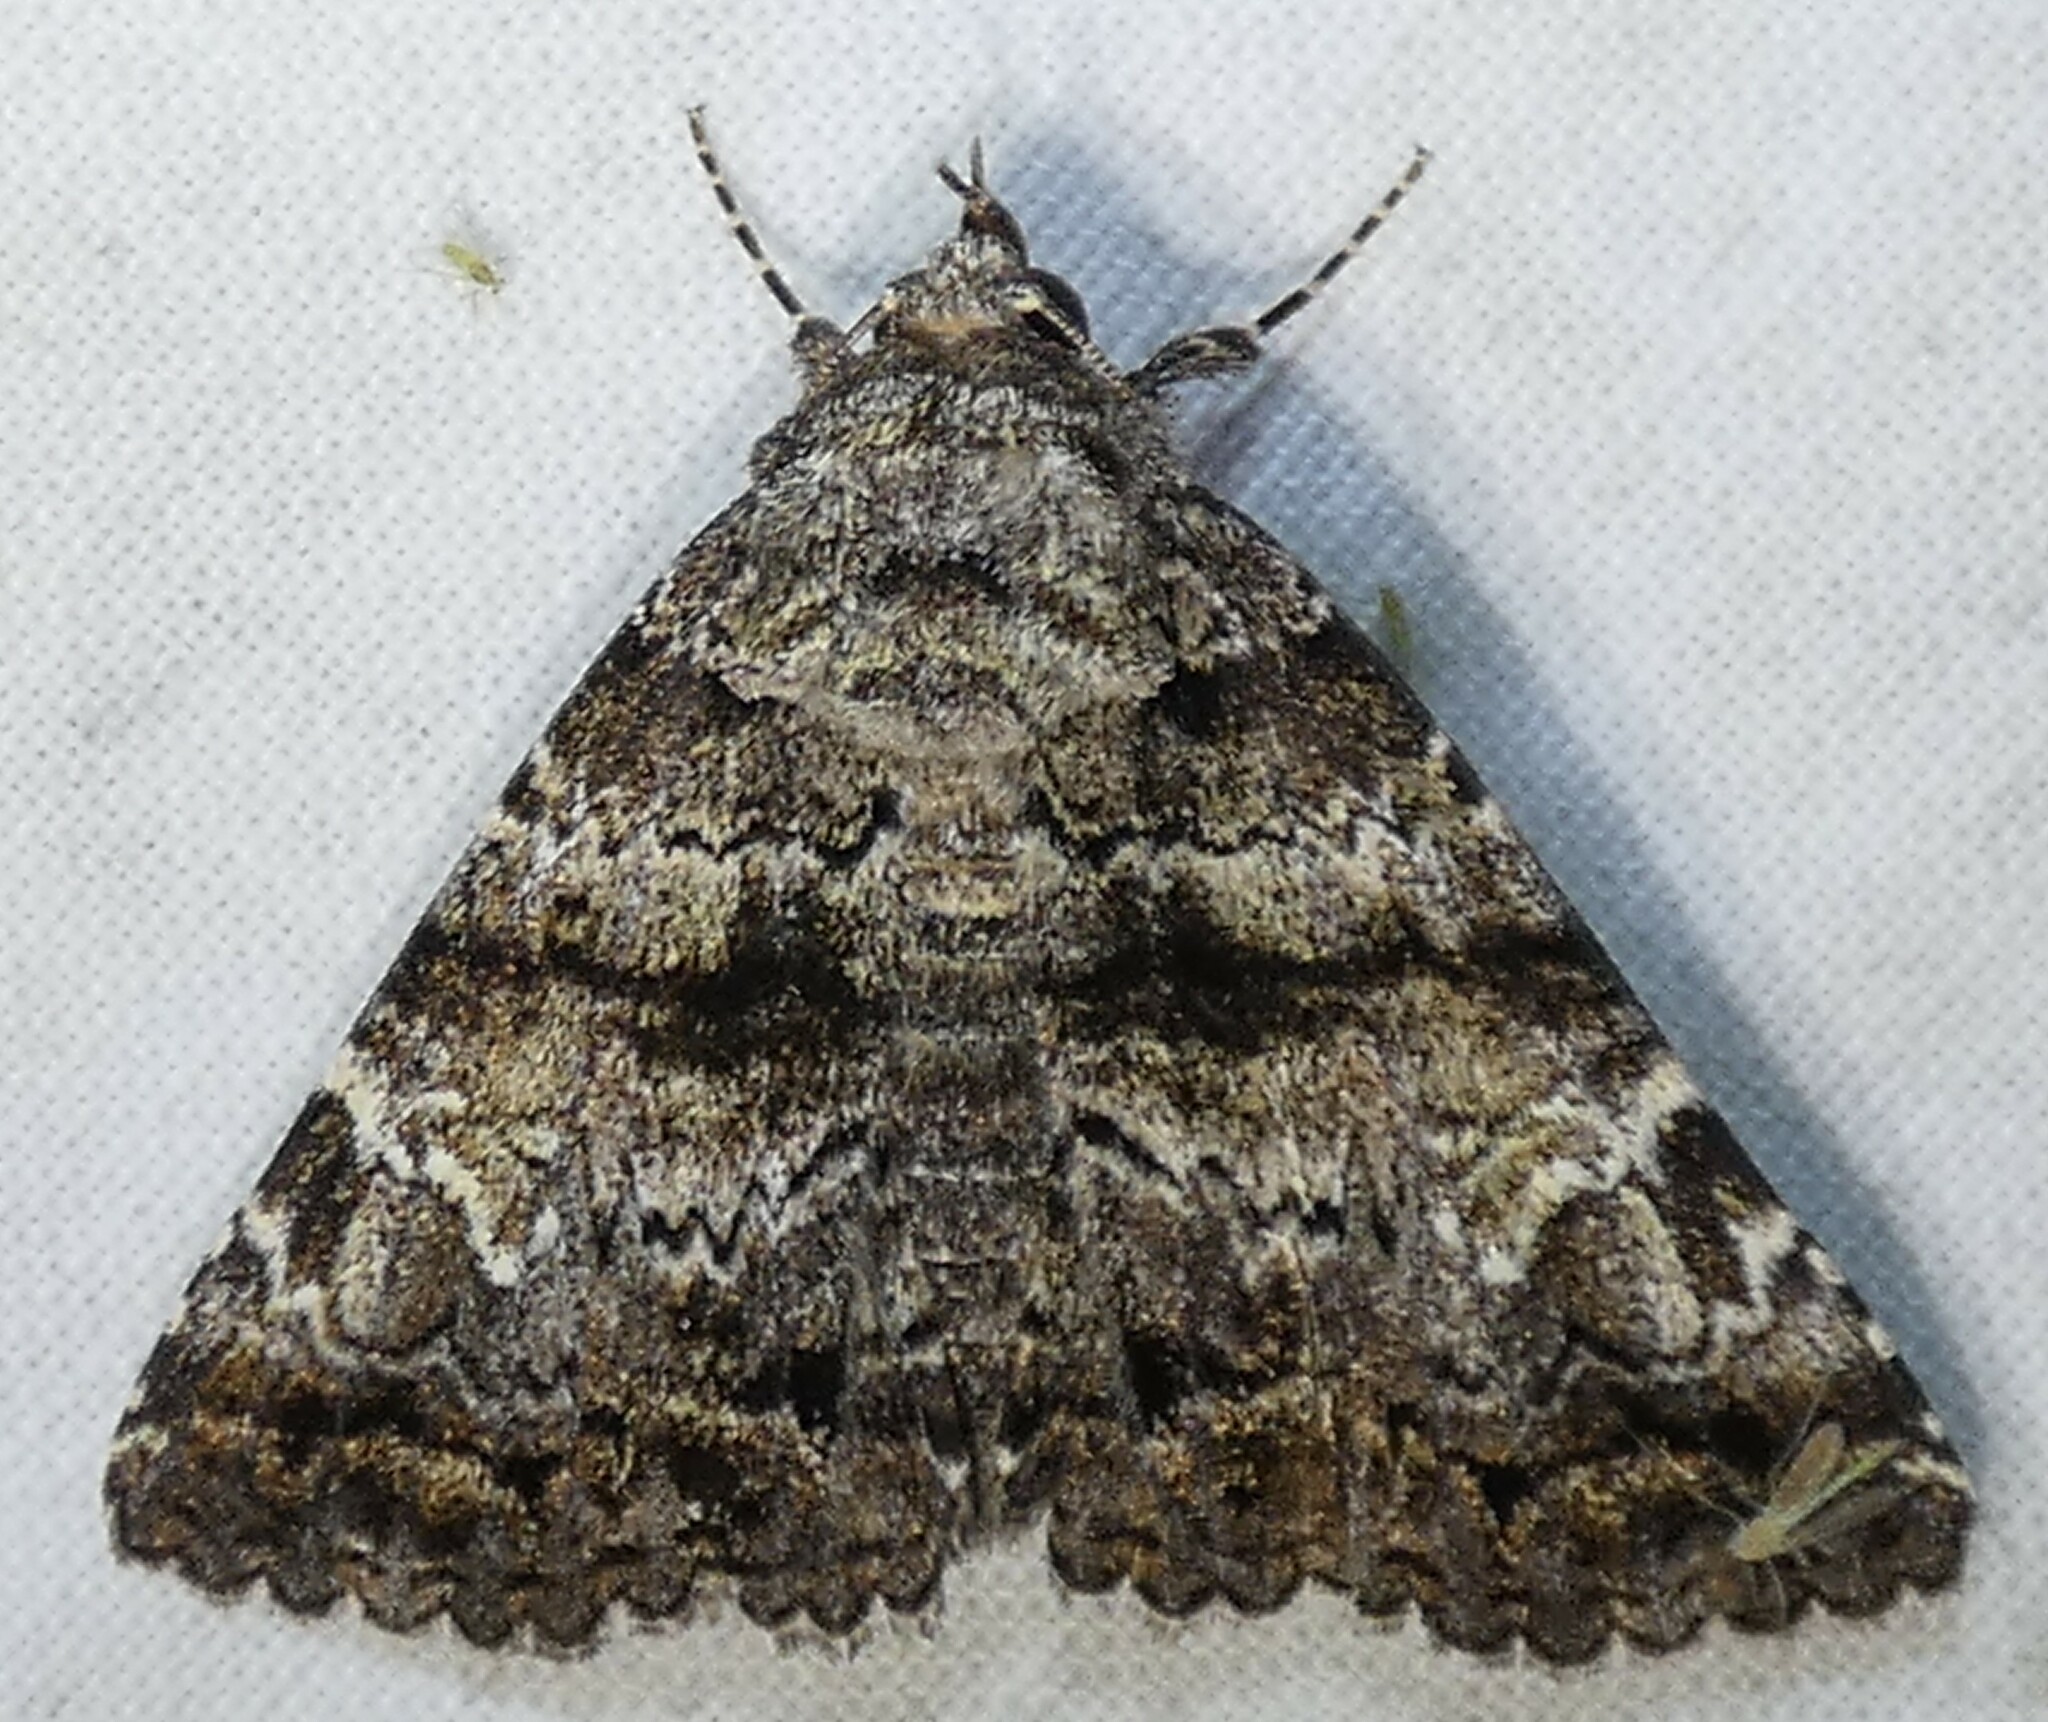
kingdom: Animalia
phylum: Arthropoda
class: Insecta
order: Lepidoptera
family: Erebidae
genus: Metria
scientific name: Metria amella
